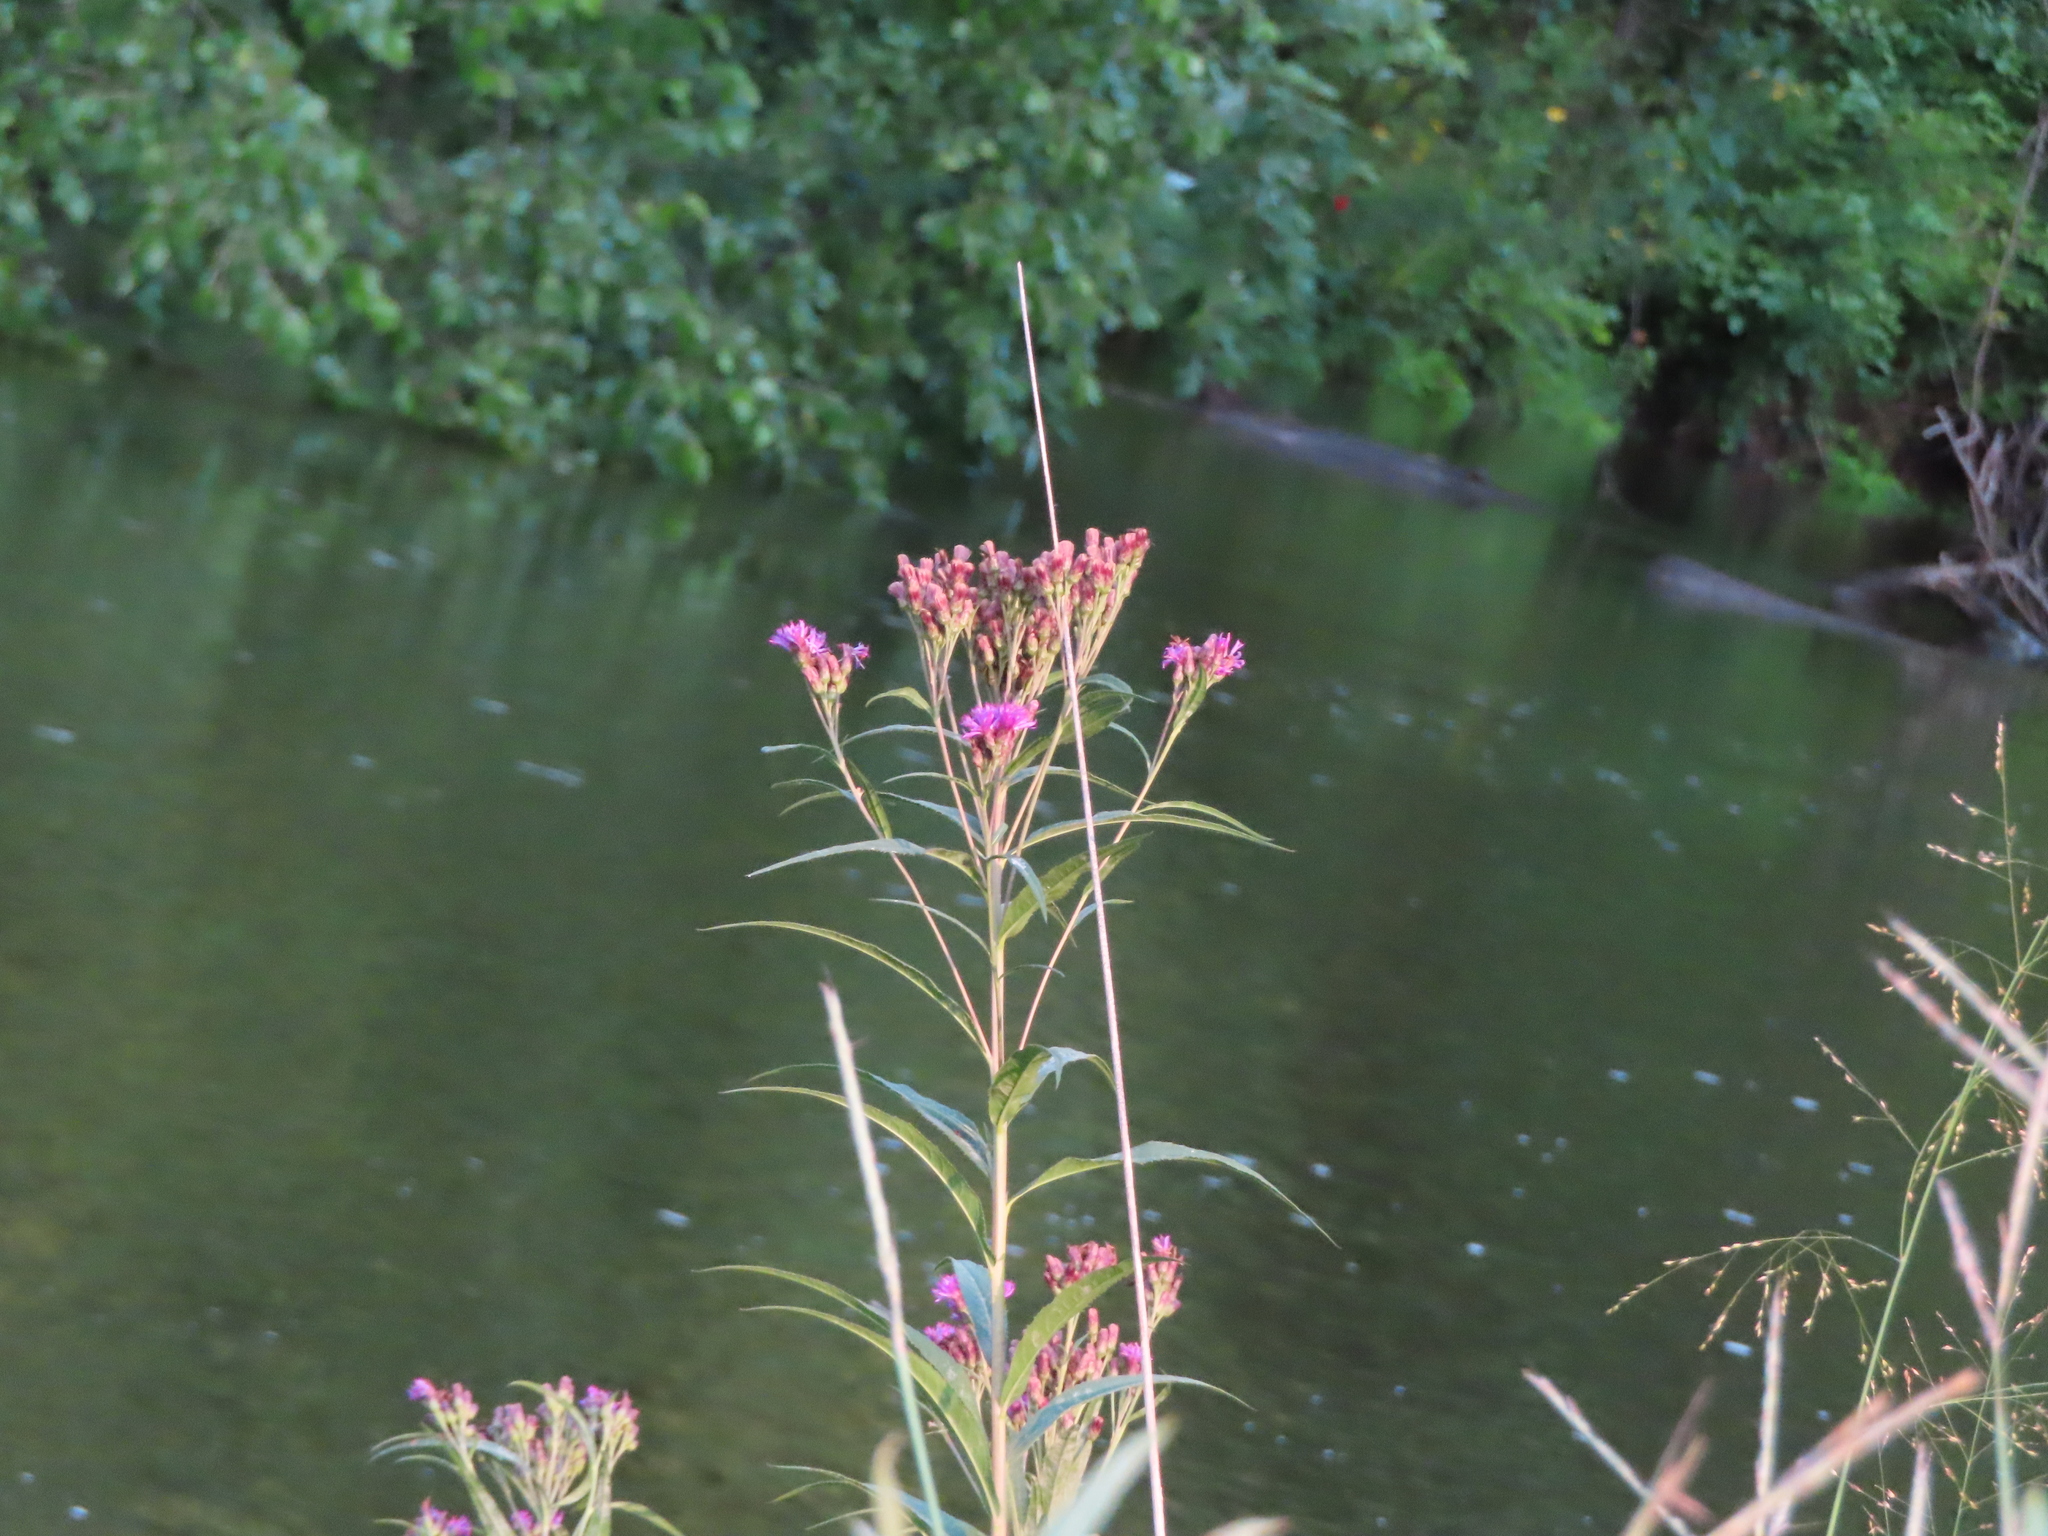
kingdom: Plantae
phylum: Tracheophyta
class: Magnoliopsida
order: Asterales
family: Asteraceae
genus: Vernonia
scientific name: Vernonia fasciculata
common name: Fascicled ironweed
